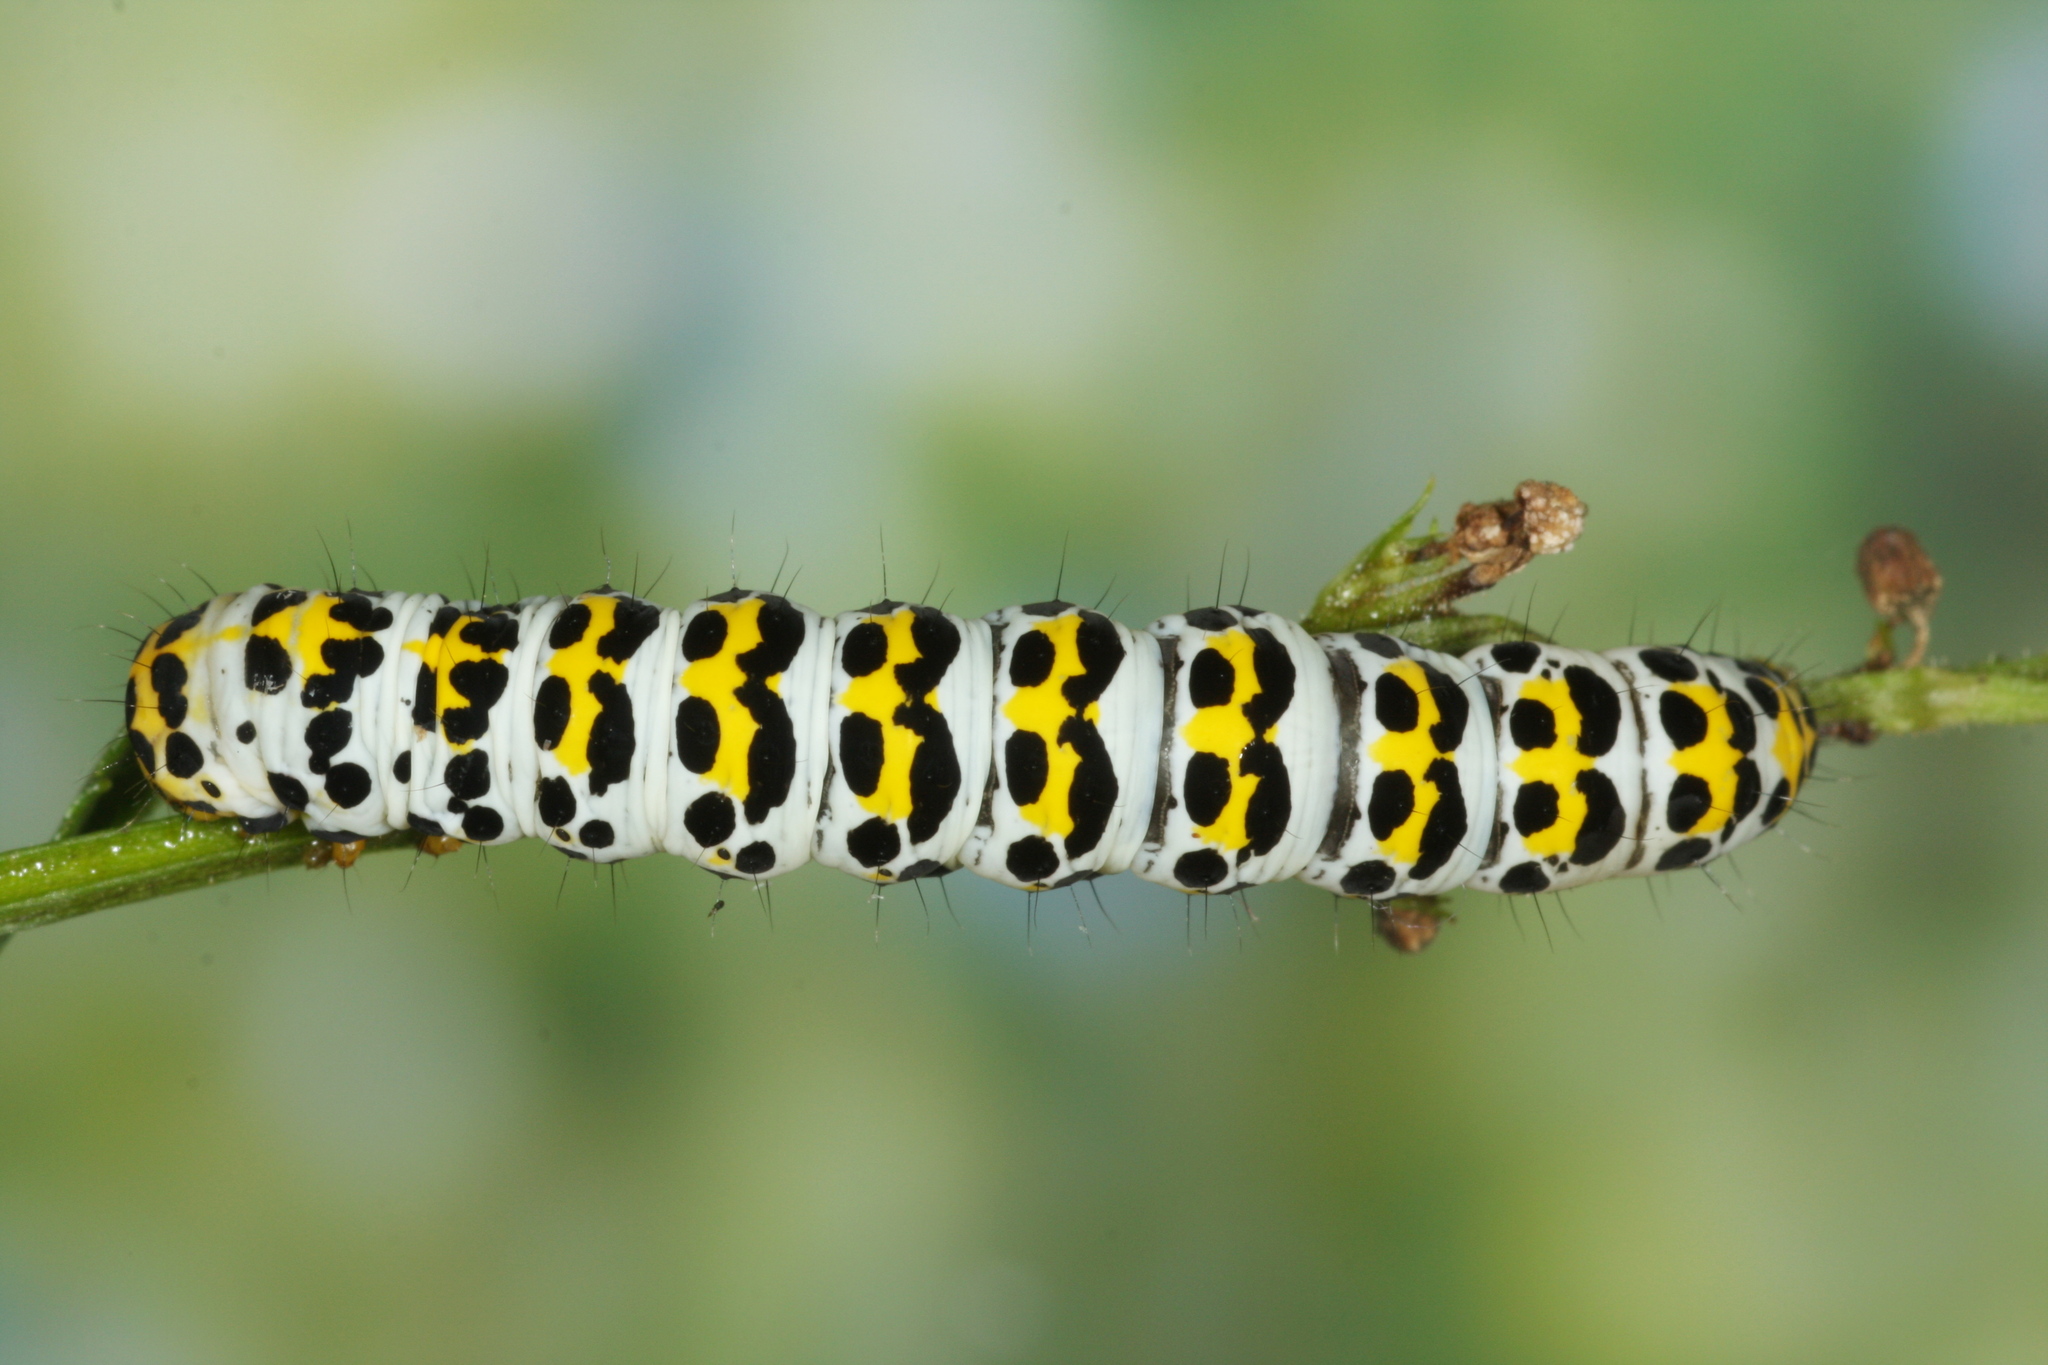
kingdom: Animalia
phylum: Arthropoda
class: Insecta
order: Lepidoptera
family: Noctuidae
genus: Shargacucullia
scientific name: Shargacucullia scrophulariae
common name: Water betony
